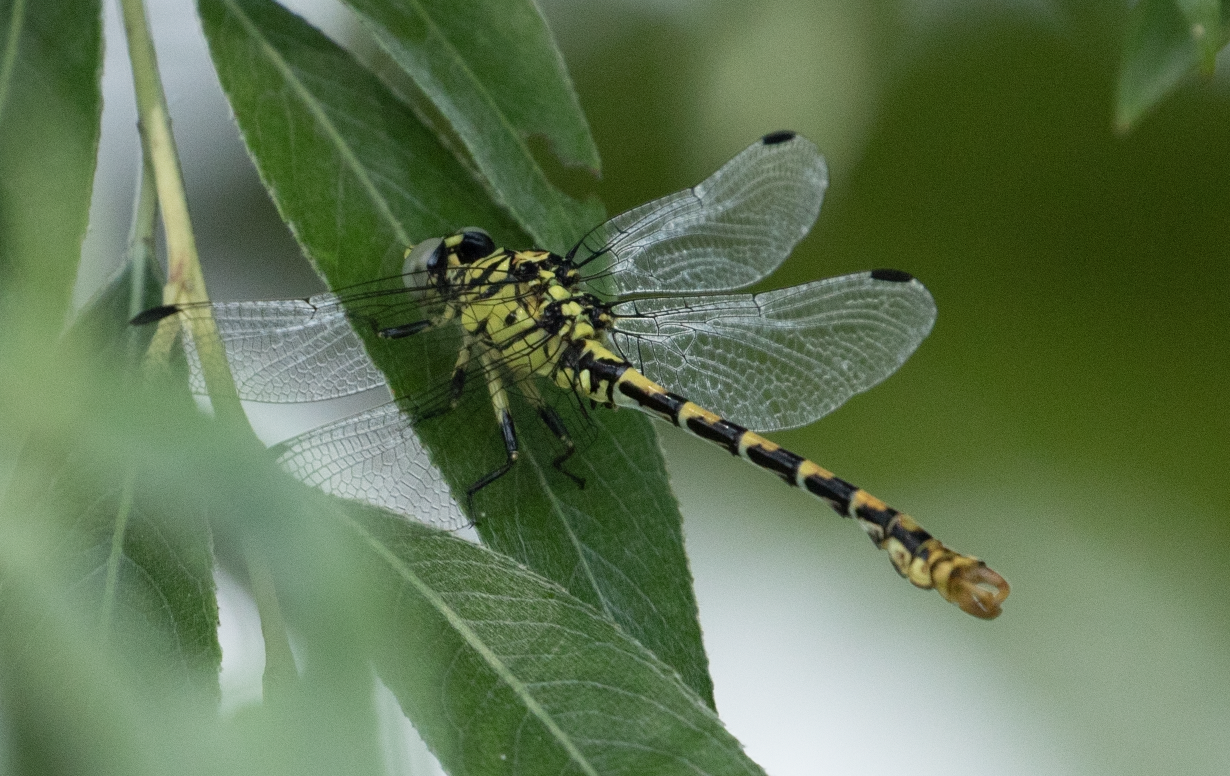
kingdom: Animalia
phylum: Arthropoda
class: Insecta
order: Odonata
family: Gomphidae
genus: Onychogomphus
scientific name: Onychogomphus forcipatus
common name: Small pincertail
